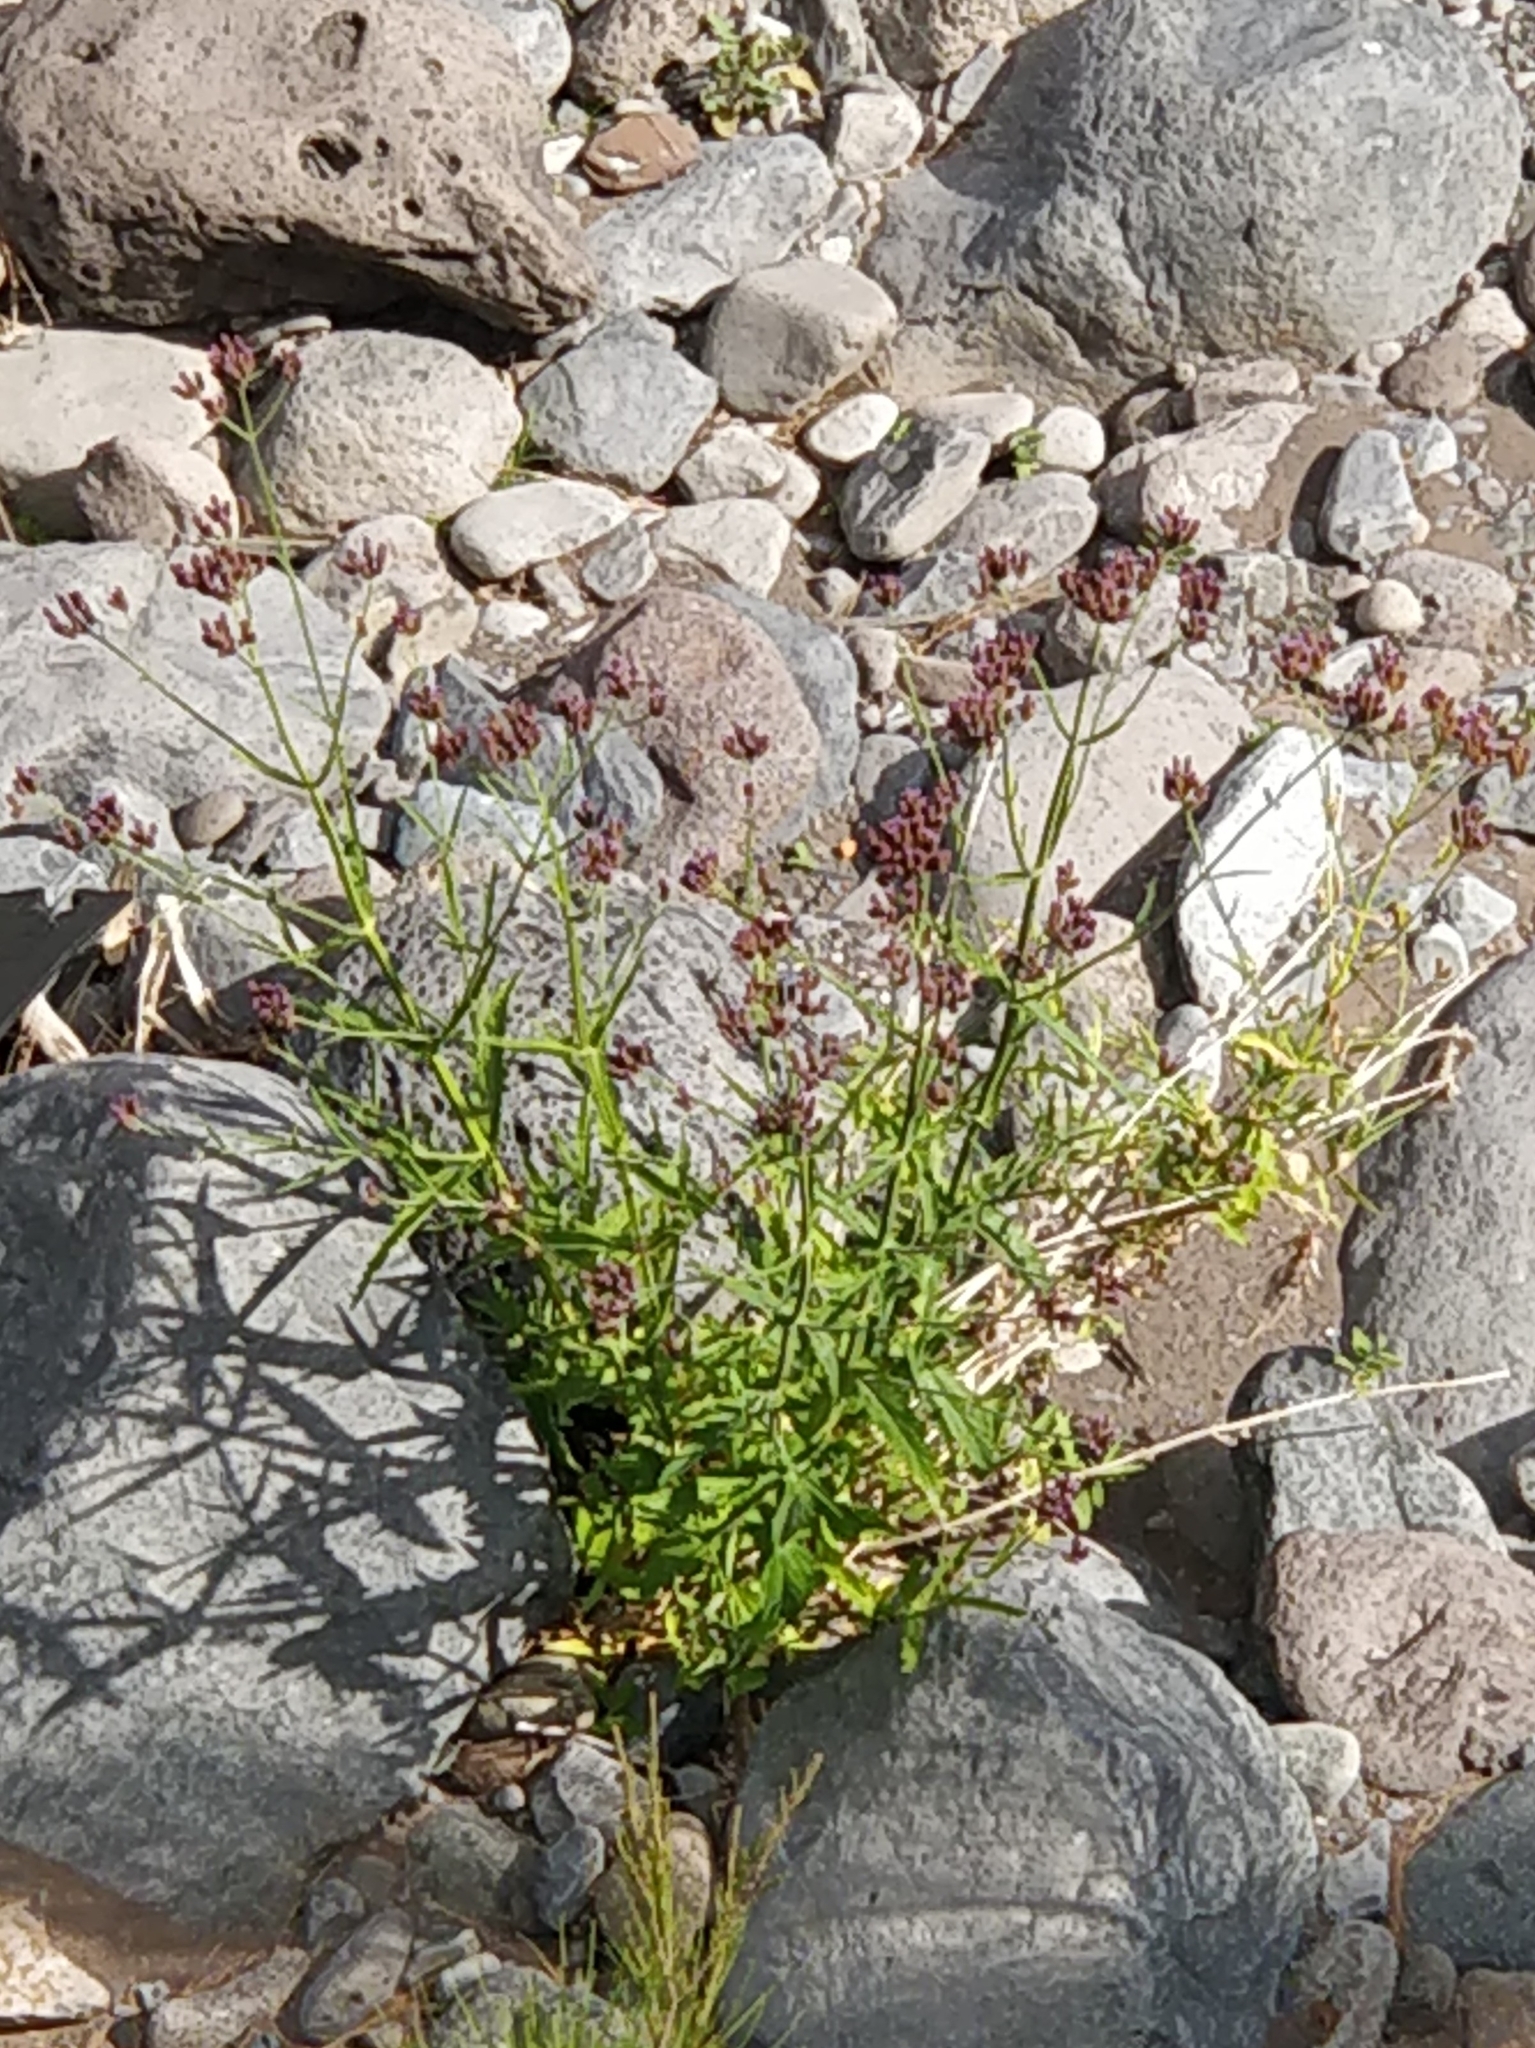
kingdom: Plantae
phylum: Tracheophyta
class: Magnoliopsida
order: Lamiales
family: Verbenaceae
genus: Verbena
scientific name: Verbena bonariensis
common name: Purpletop vervain
